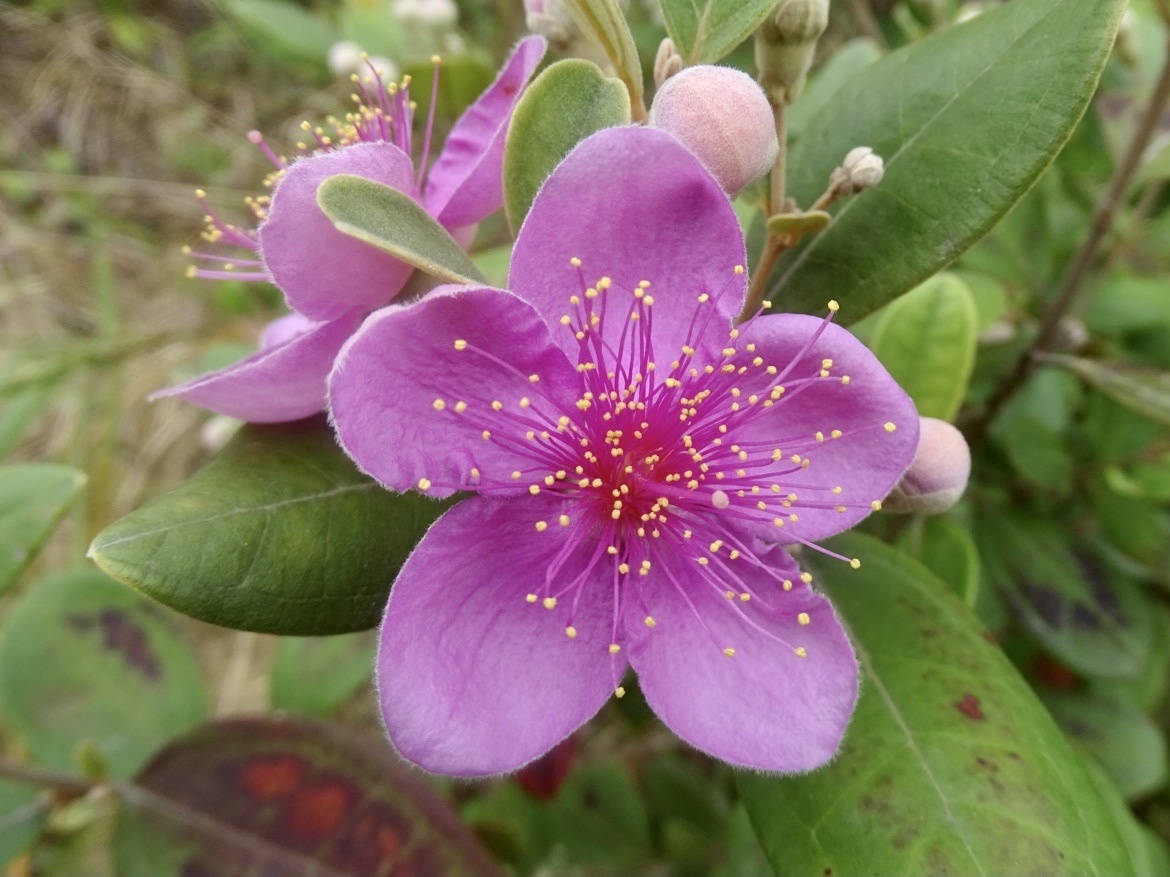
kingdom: Plantae
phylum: Tracheophyta
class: Magnoliopsida
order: Myrtales
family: Myrtaceae
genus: Rhodomyrtus
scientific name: Rhodomyrtus tomentosa
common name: Rose myrtle
